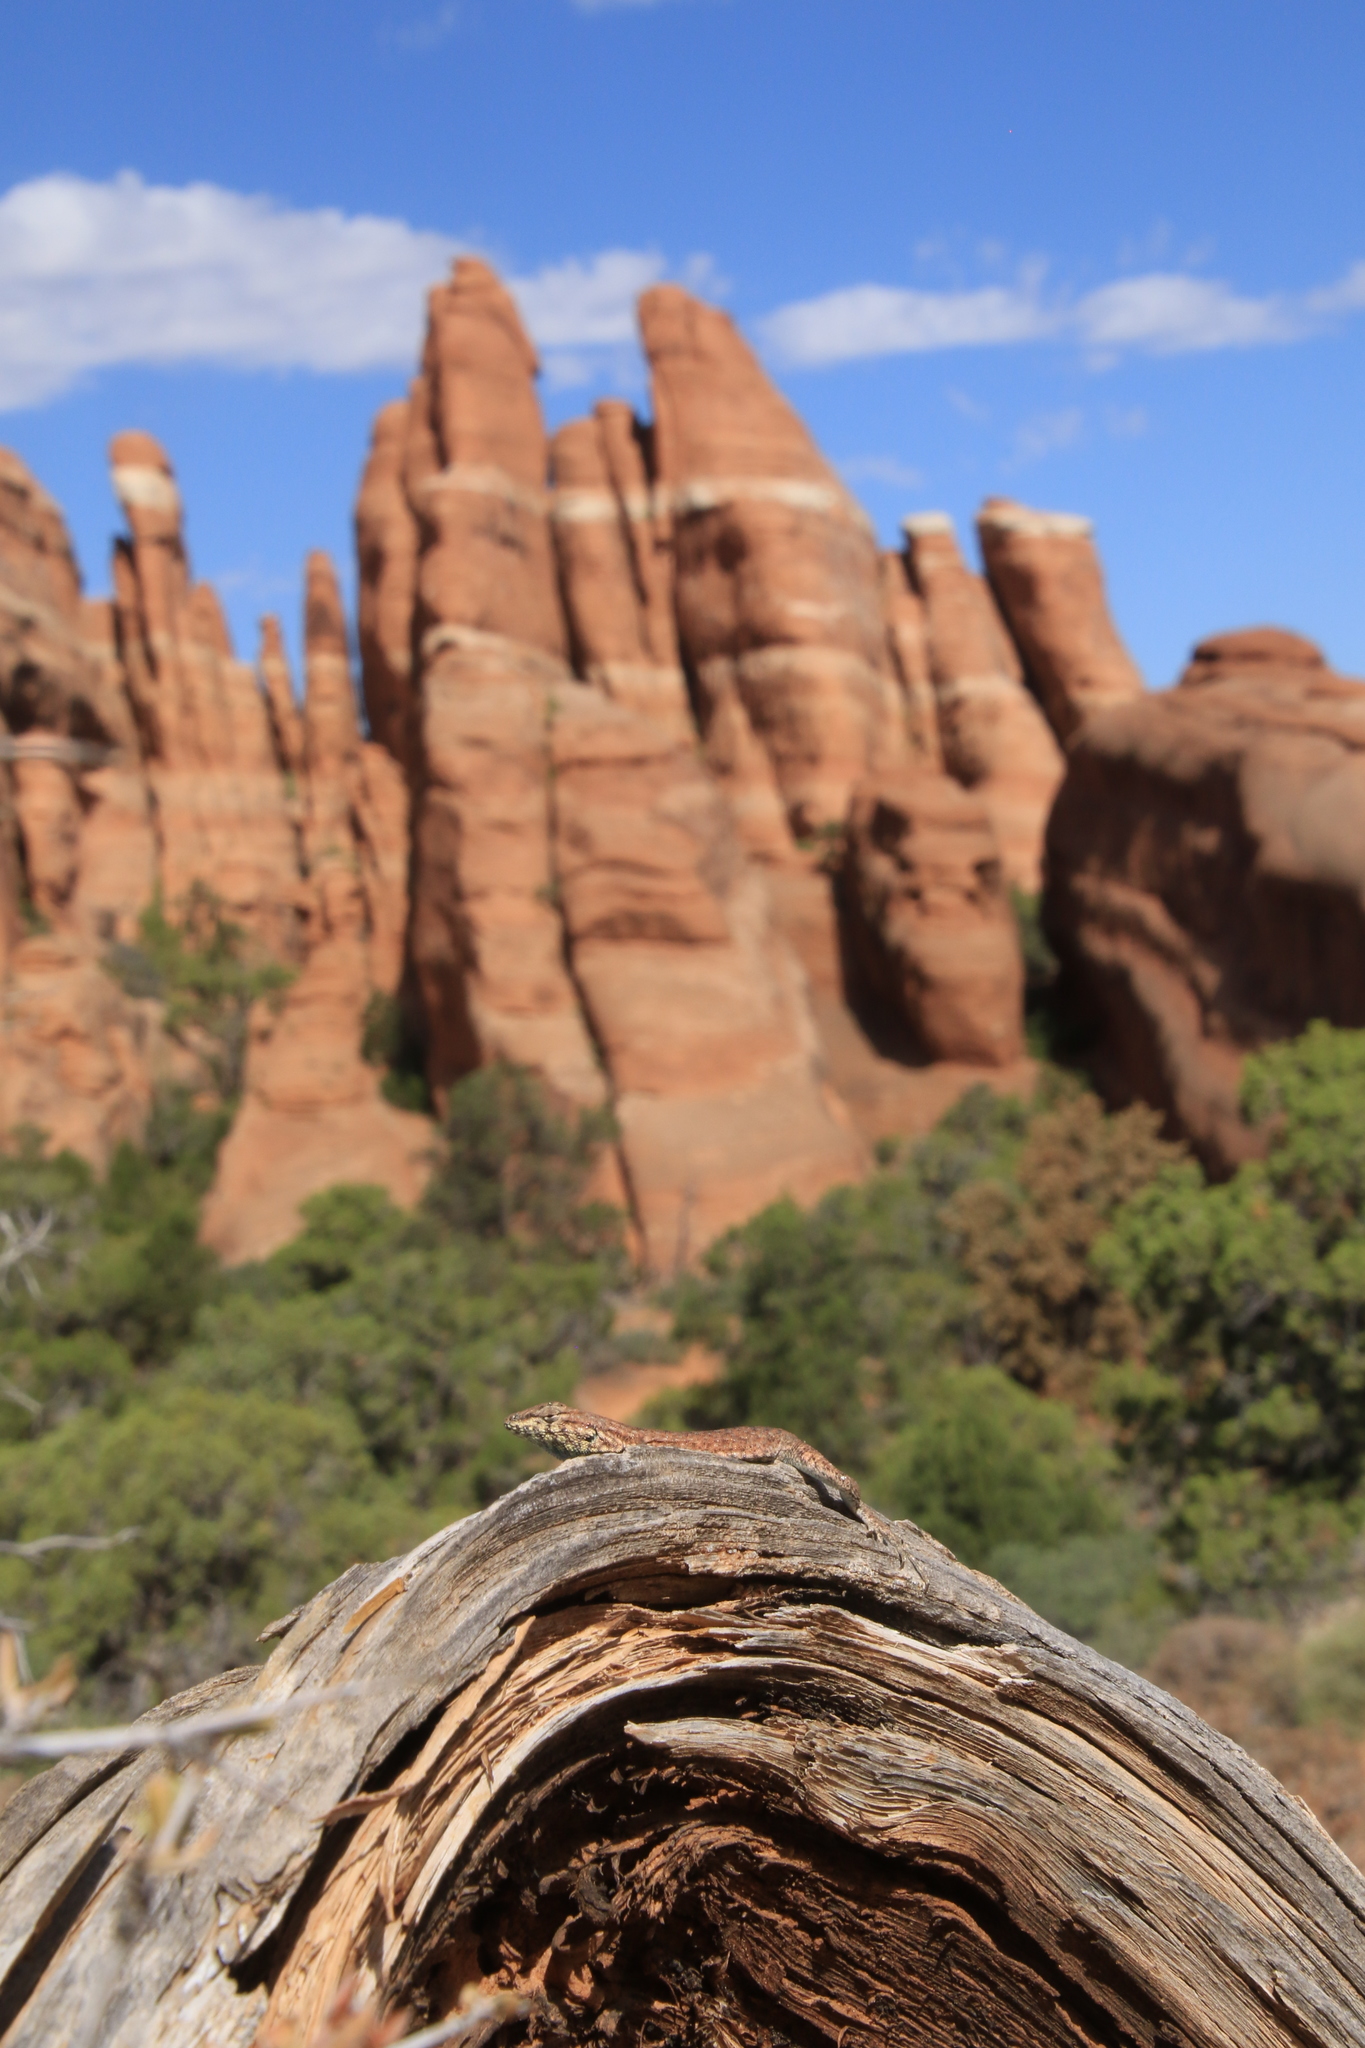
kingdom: Animalia
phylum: Chordata
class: Squamata
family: Phrynosomatidae
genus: Uta
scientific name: Uta stansburiana
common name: Side-blotched lizard
